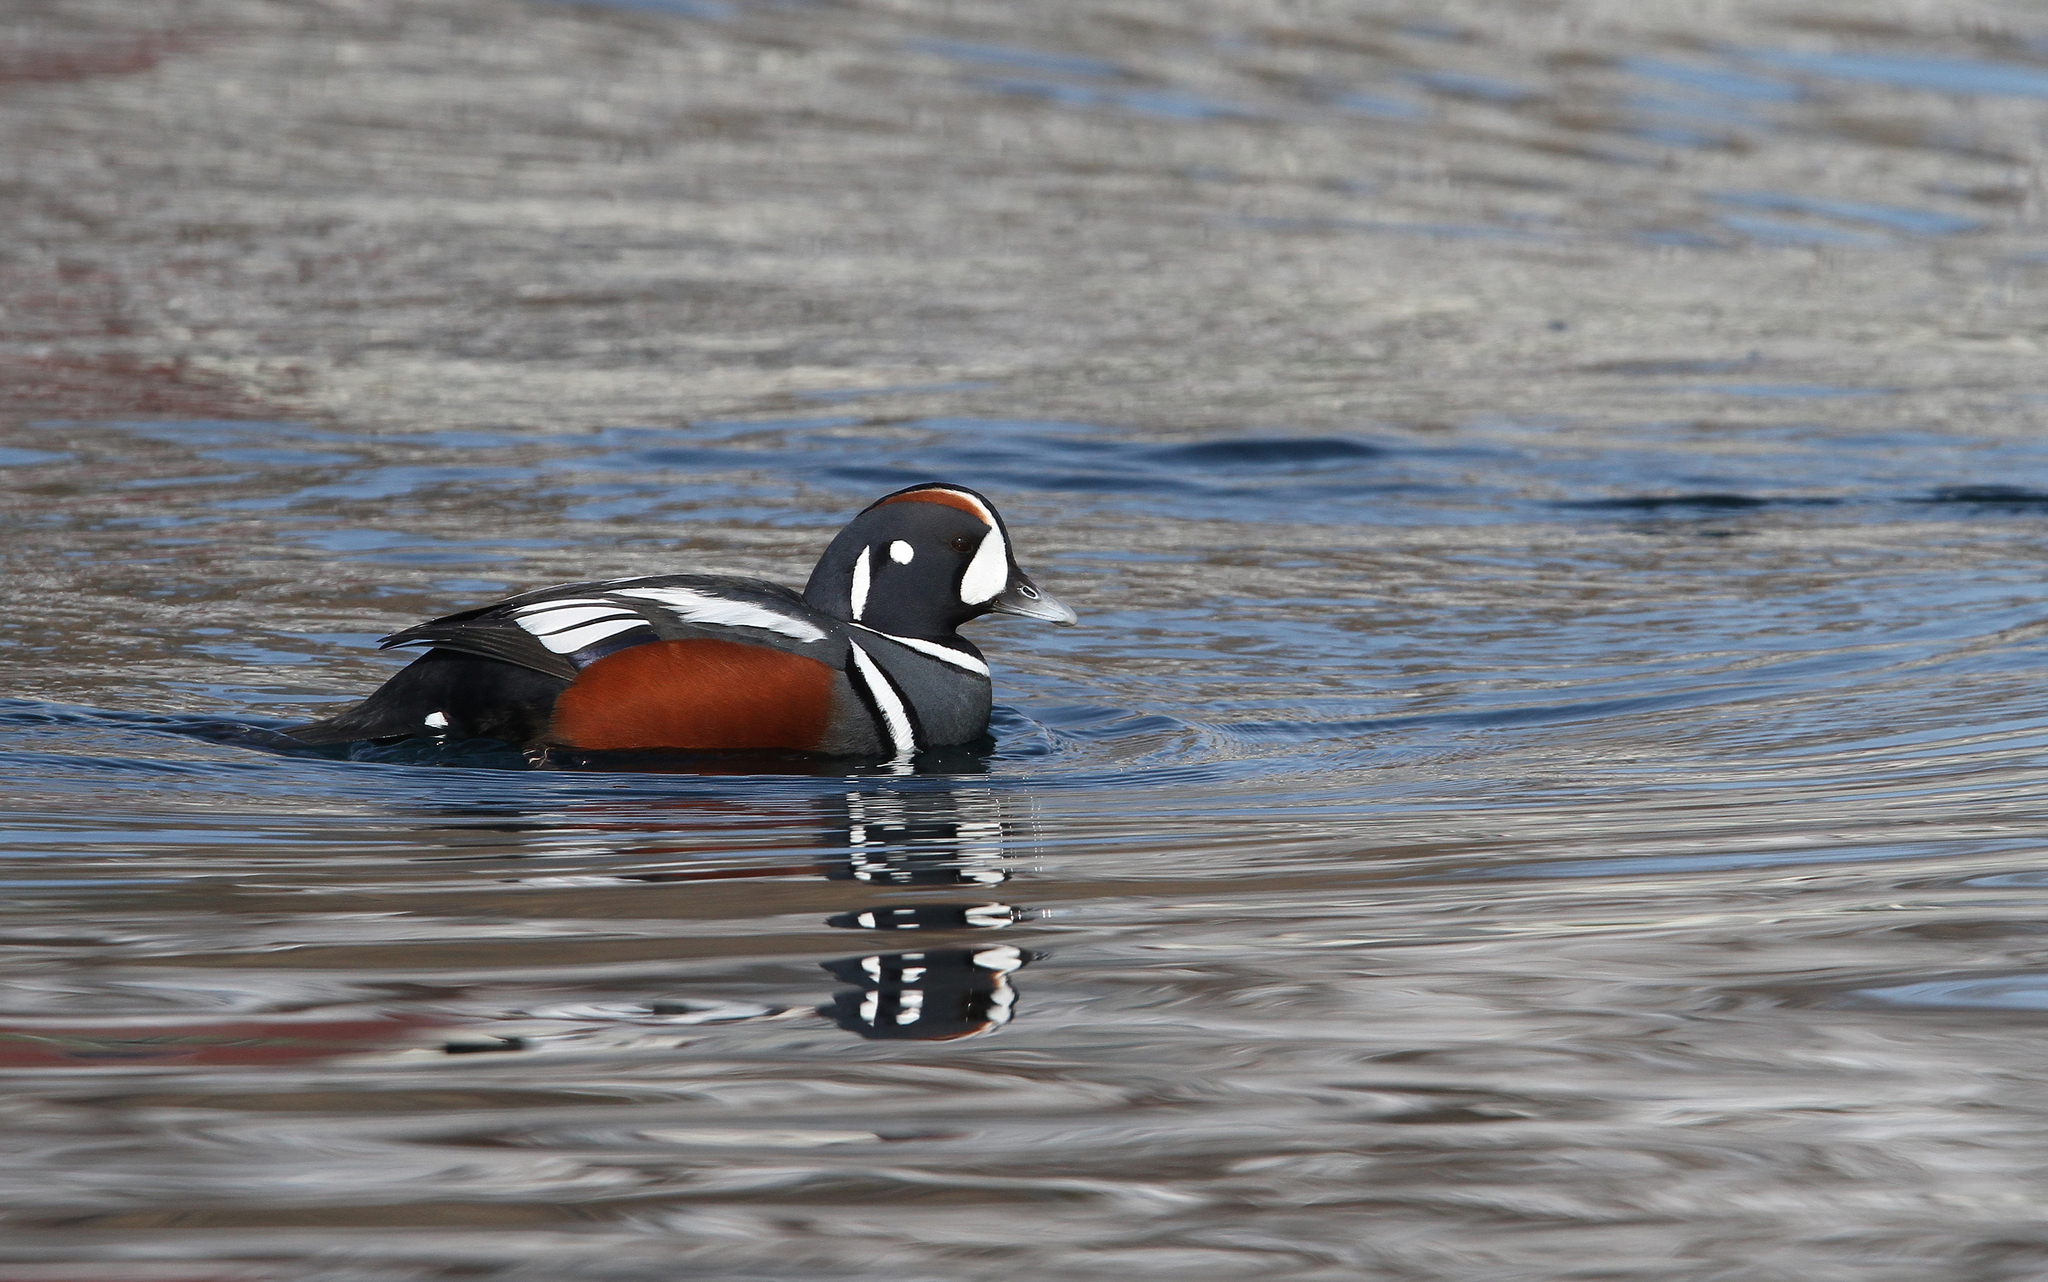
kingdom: Animalia
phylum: Chordata
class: Aves
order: Anseriformes
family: Anatidae
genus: Histrionicus
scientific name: Histrionicus histrionicus
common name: Harlequin duck
